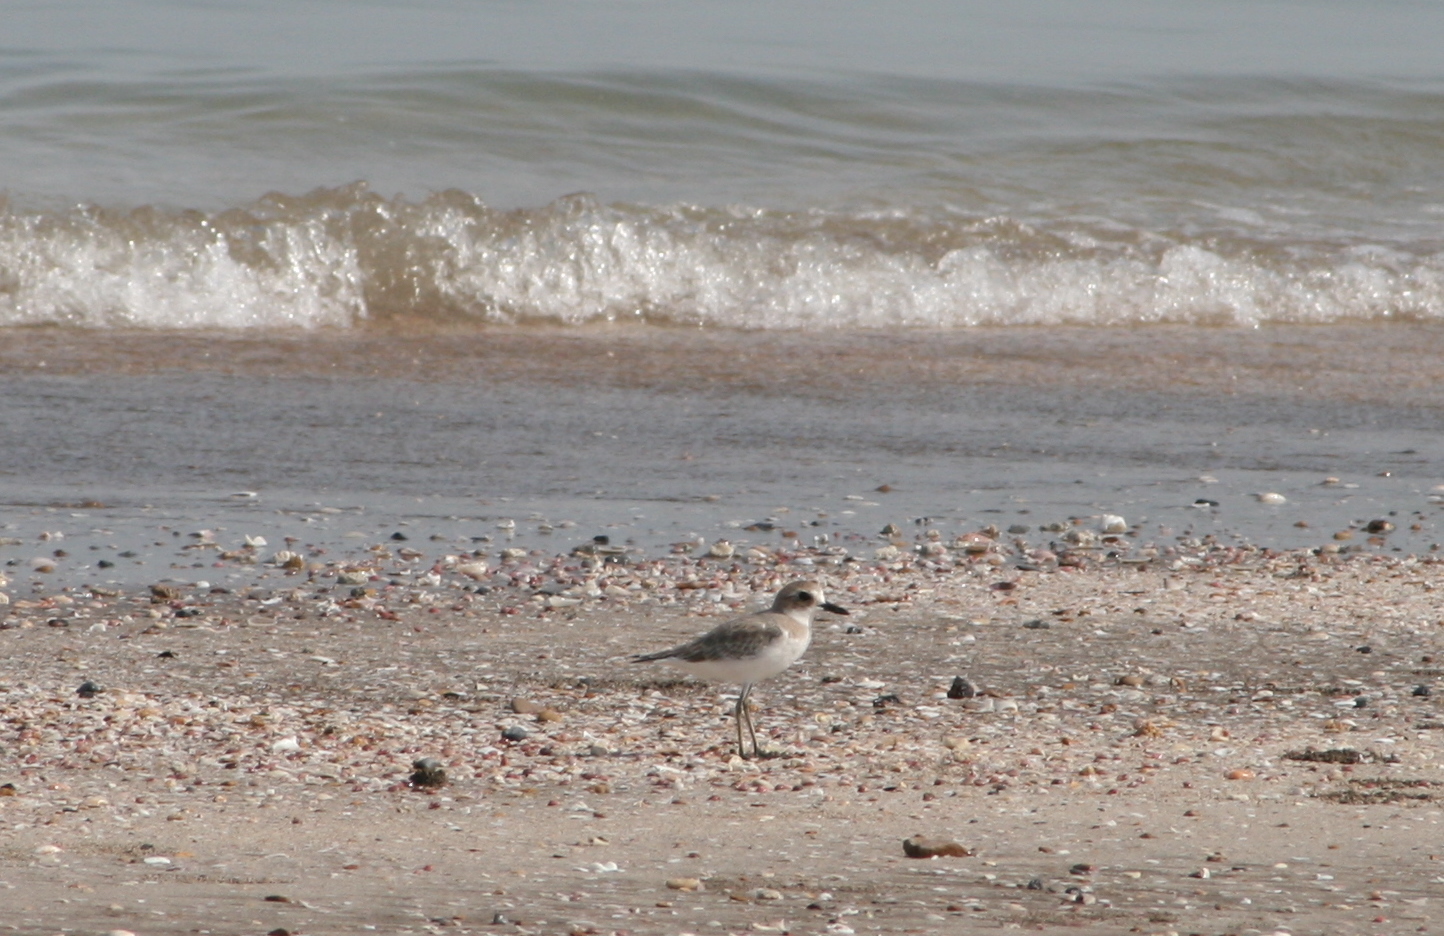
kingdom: Animalia
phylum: Chordata
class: Aves
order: Charadriiformes
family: Charadriidae
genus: Charadrius
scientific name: Charadrius leschenaultii
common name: Greater sand plover
